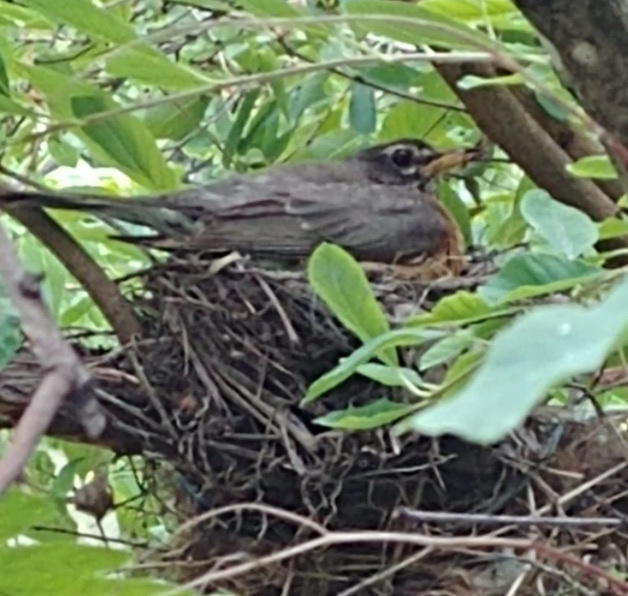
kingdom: Animalia
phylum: Chordata
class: Aves
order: Passeriformes
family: Turdidae
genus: Turdus
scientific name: Turdus migratorius
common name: American robin
